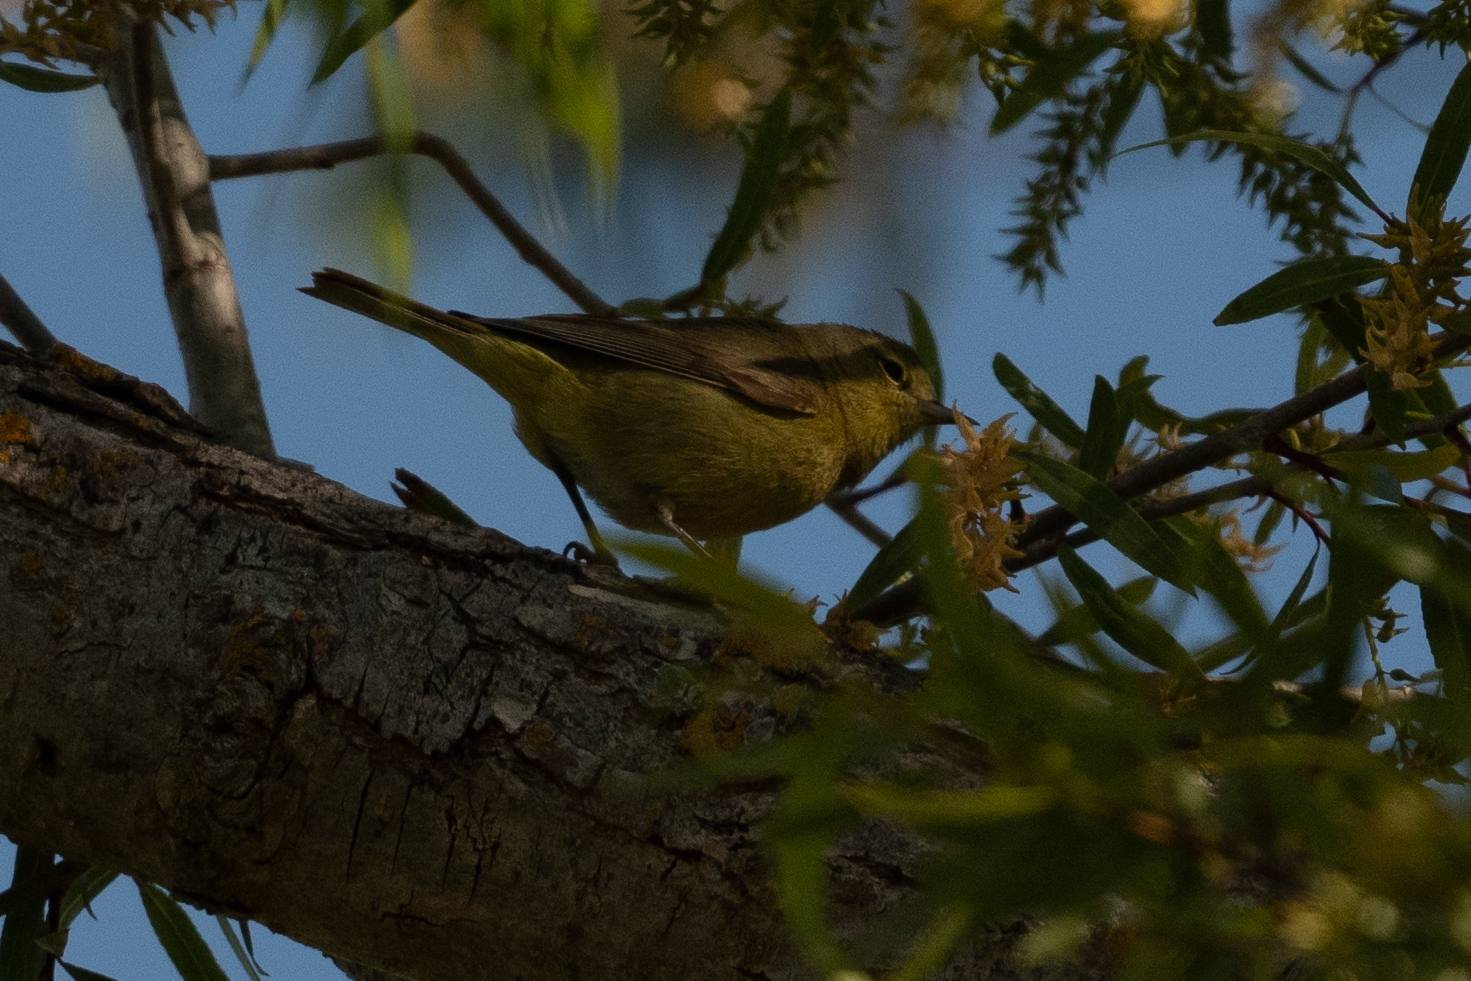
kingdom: Animalia
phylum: Chordata
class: Aves
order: Passeriformes
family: Parulidae
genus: Leiothlypis
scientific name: Leiothlypis celata
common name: Orange-crowned warbler
